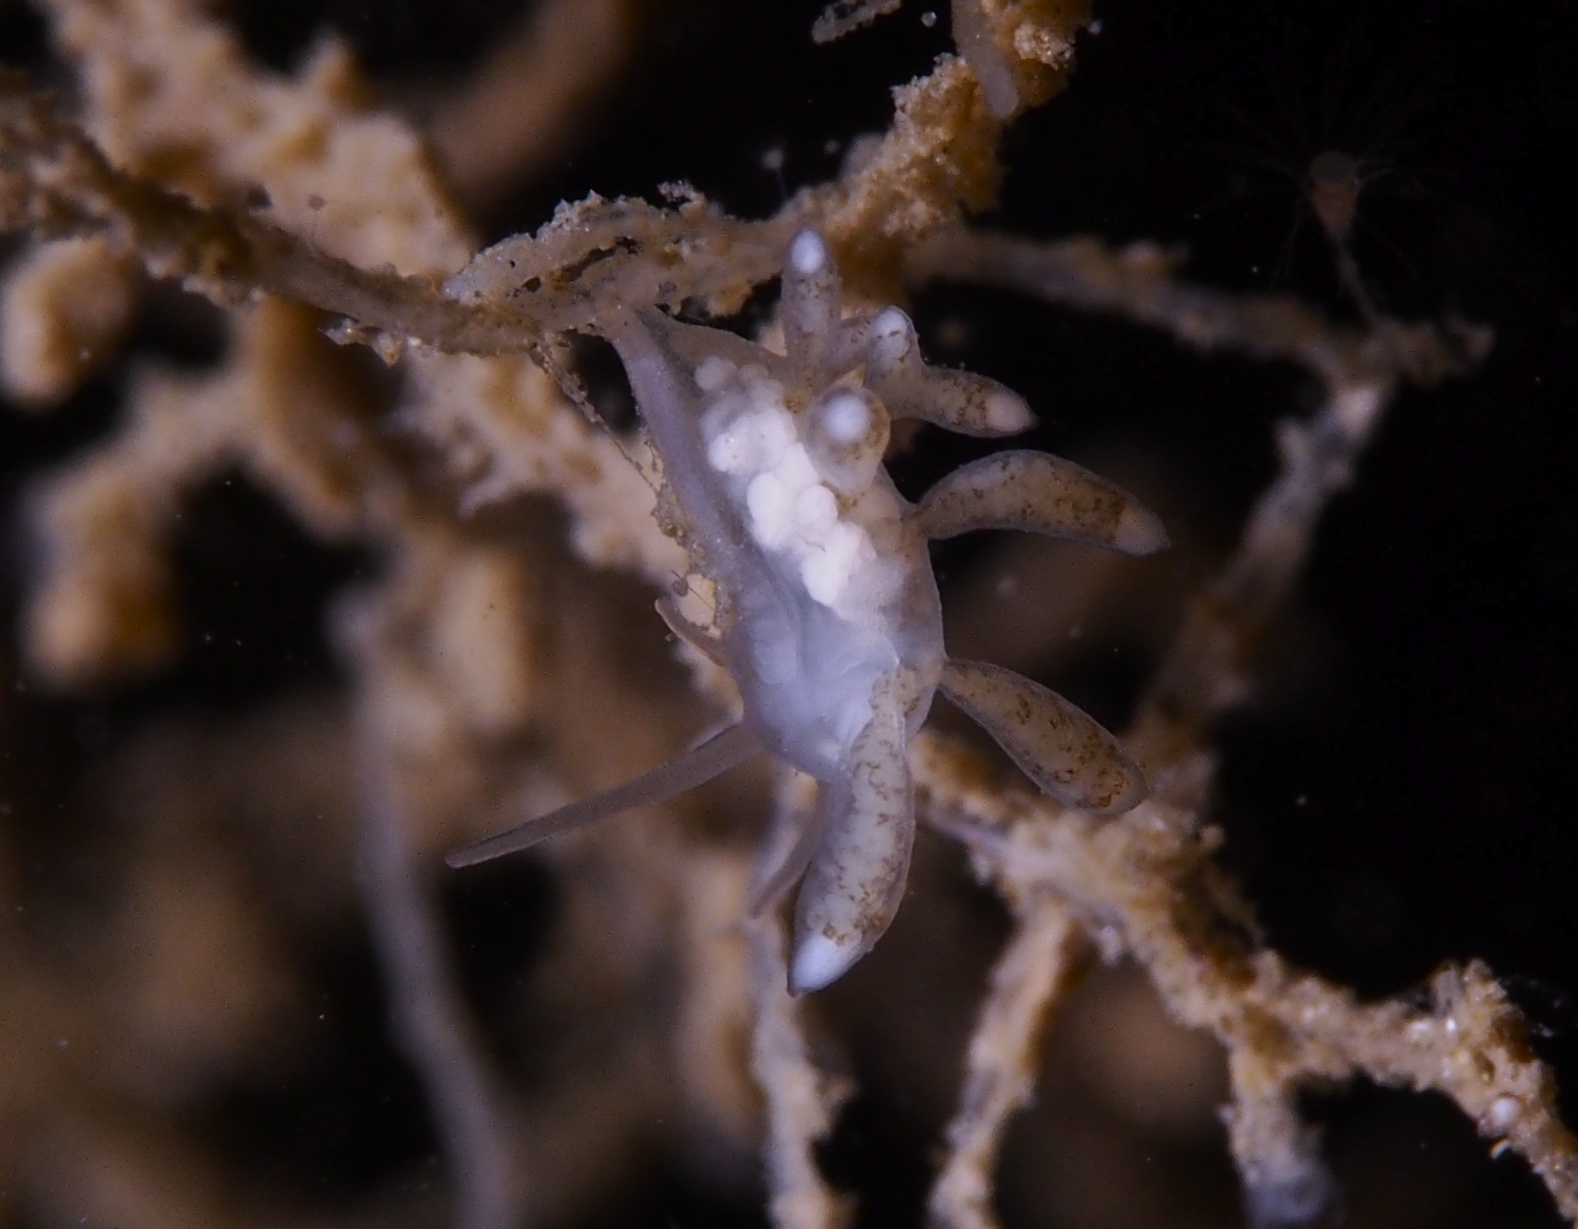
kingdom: Animalia
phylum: Mollusca
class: Gastropoda
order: Nudibranchia
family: Tergipedidae
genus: Tergipes
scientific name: Tergipes tergipes
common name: Johnston's balloon eolis
